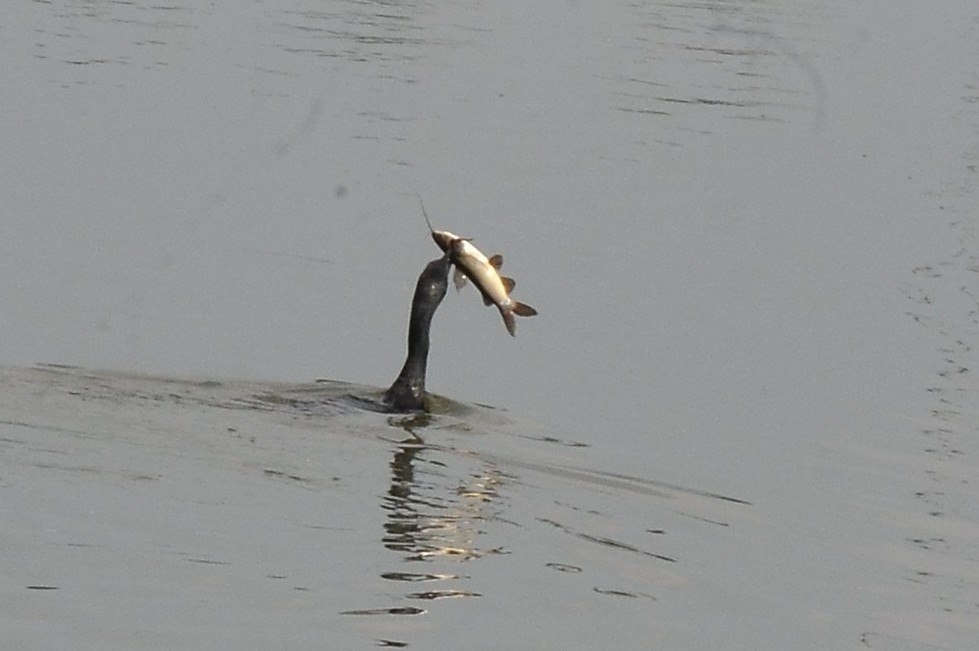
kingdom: Animalia
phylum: Chordata
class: Aves
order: Suliformes
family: Phalacrocoracidae
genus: Phalacrocorax
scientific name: Phalacrocorax fuscicollis
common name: Indian cormorant
